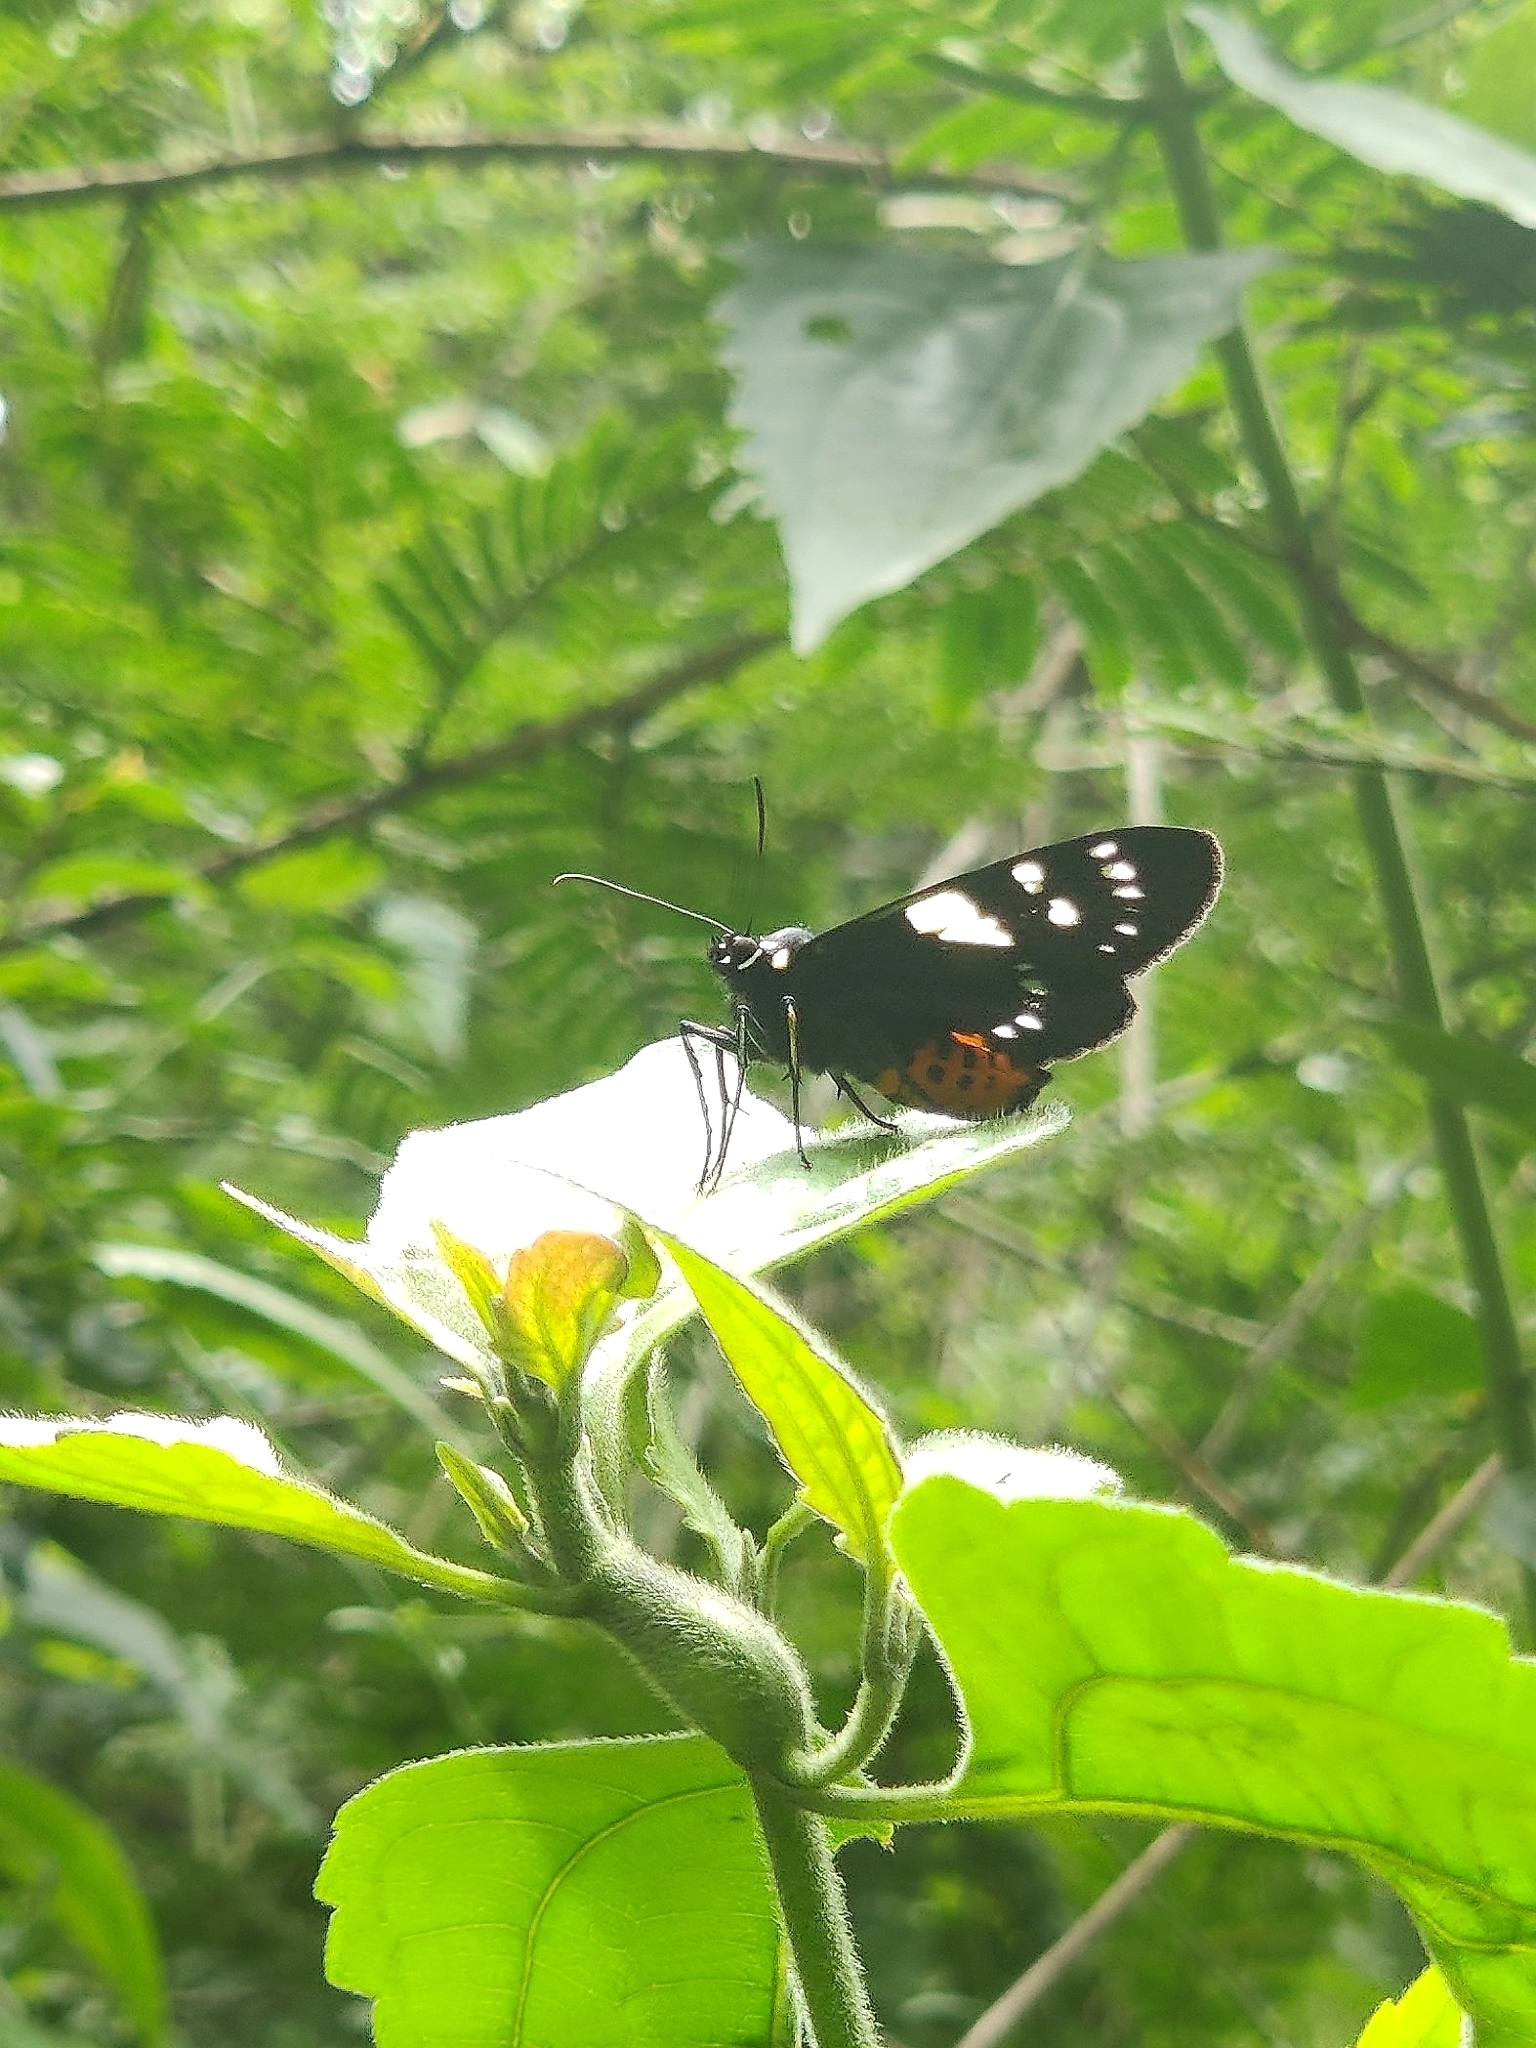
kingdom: Animalia
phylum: Arthropoda
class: Insecta
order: Lepidoptera
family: Noctuidae
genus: Episteme
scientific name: Episteme adulatrix
